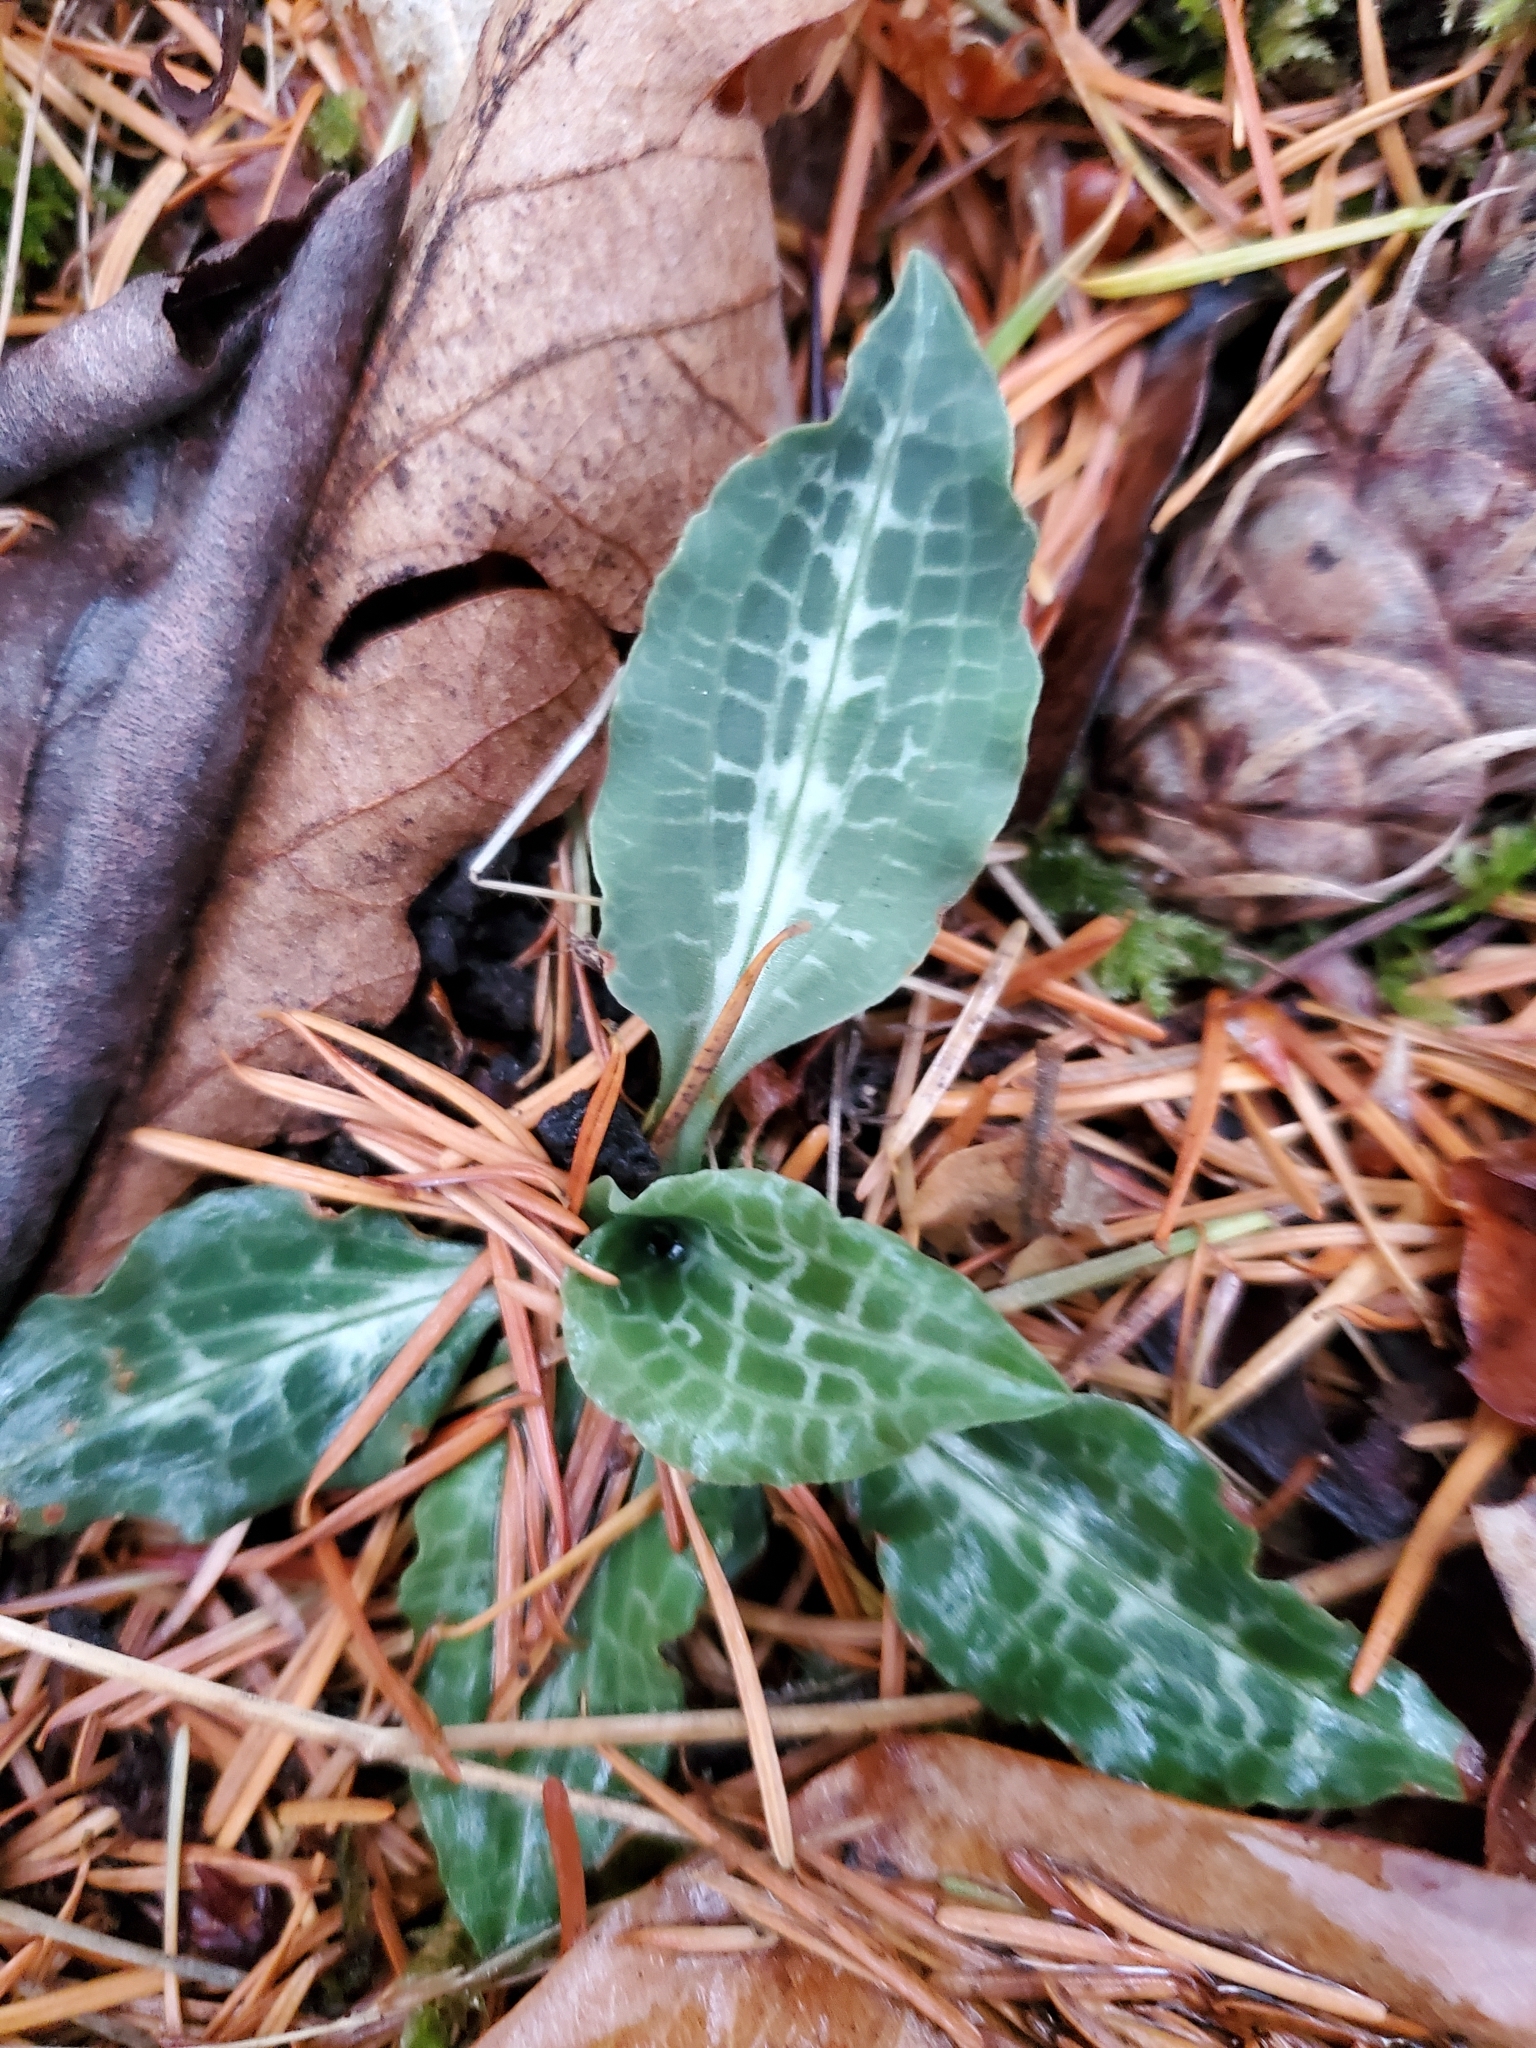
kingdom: Plantae
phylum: Tracheophyta
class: Liliopsida
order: Asparagales
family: Orchidaceae
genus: Goodyera
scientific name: Goodyera oblongifolia
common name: Giant rattlesnake-plantain
